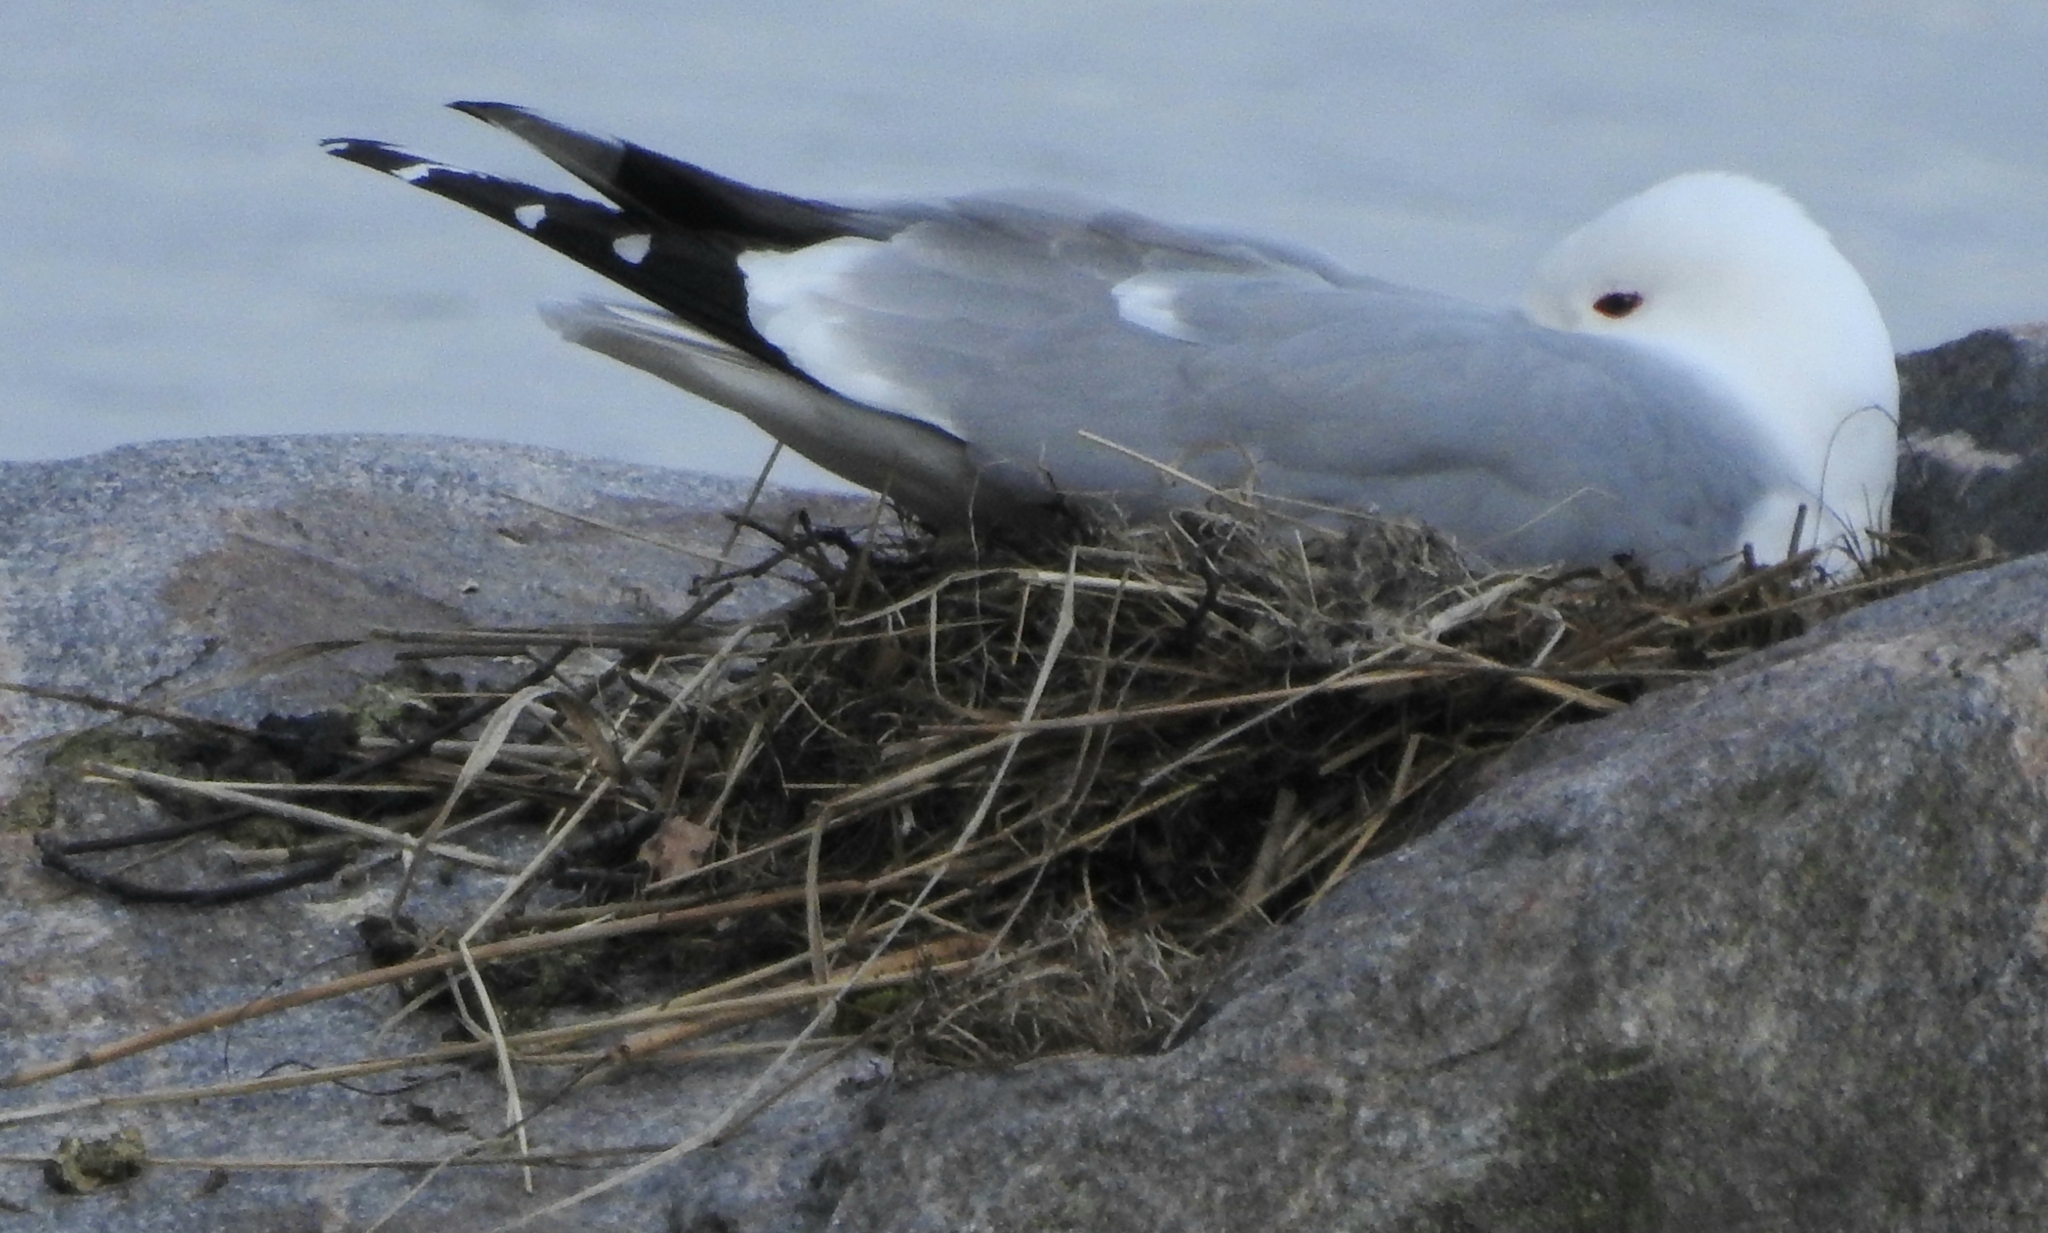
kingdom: Animalia
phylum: Chordata
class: Aves
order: Charadriiformes
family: Laridae
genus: Larus
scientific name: Larus canus
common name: Mew gull
